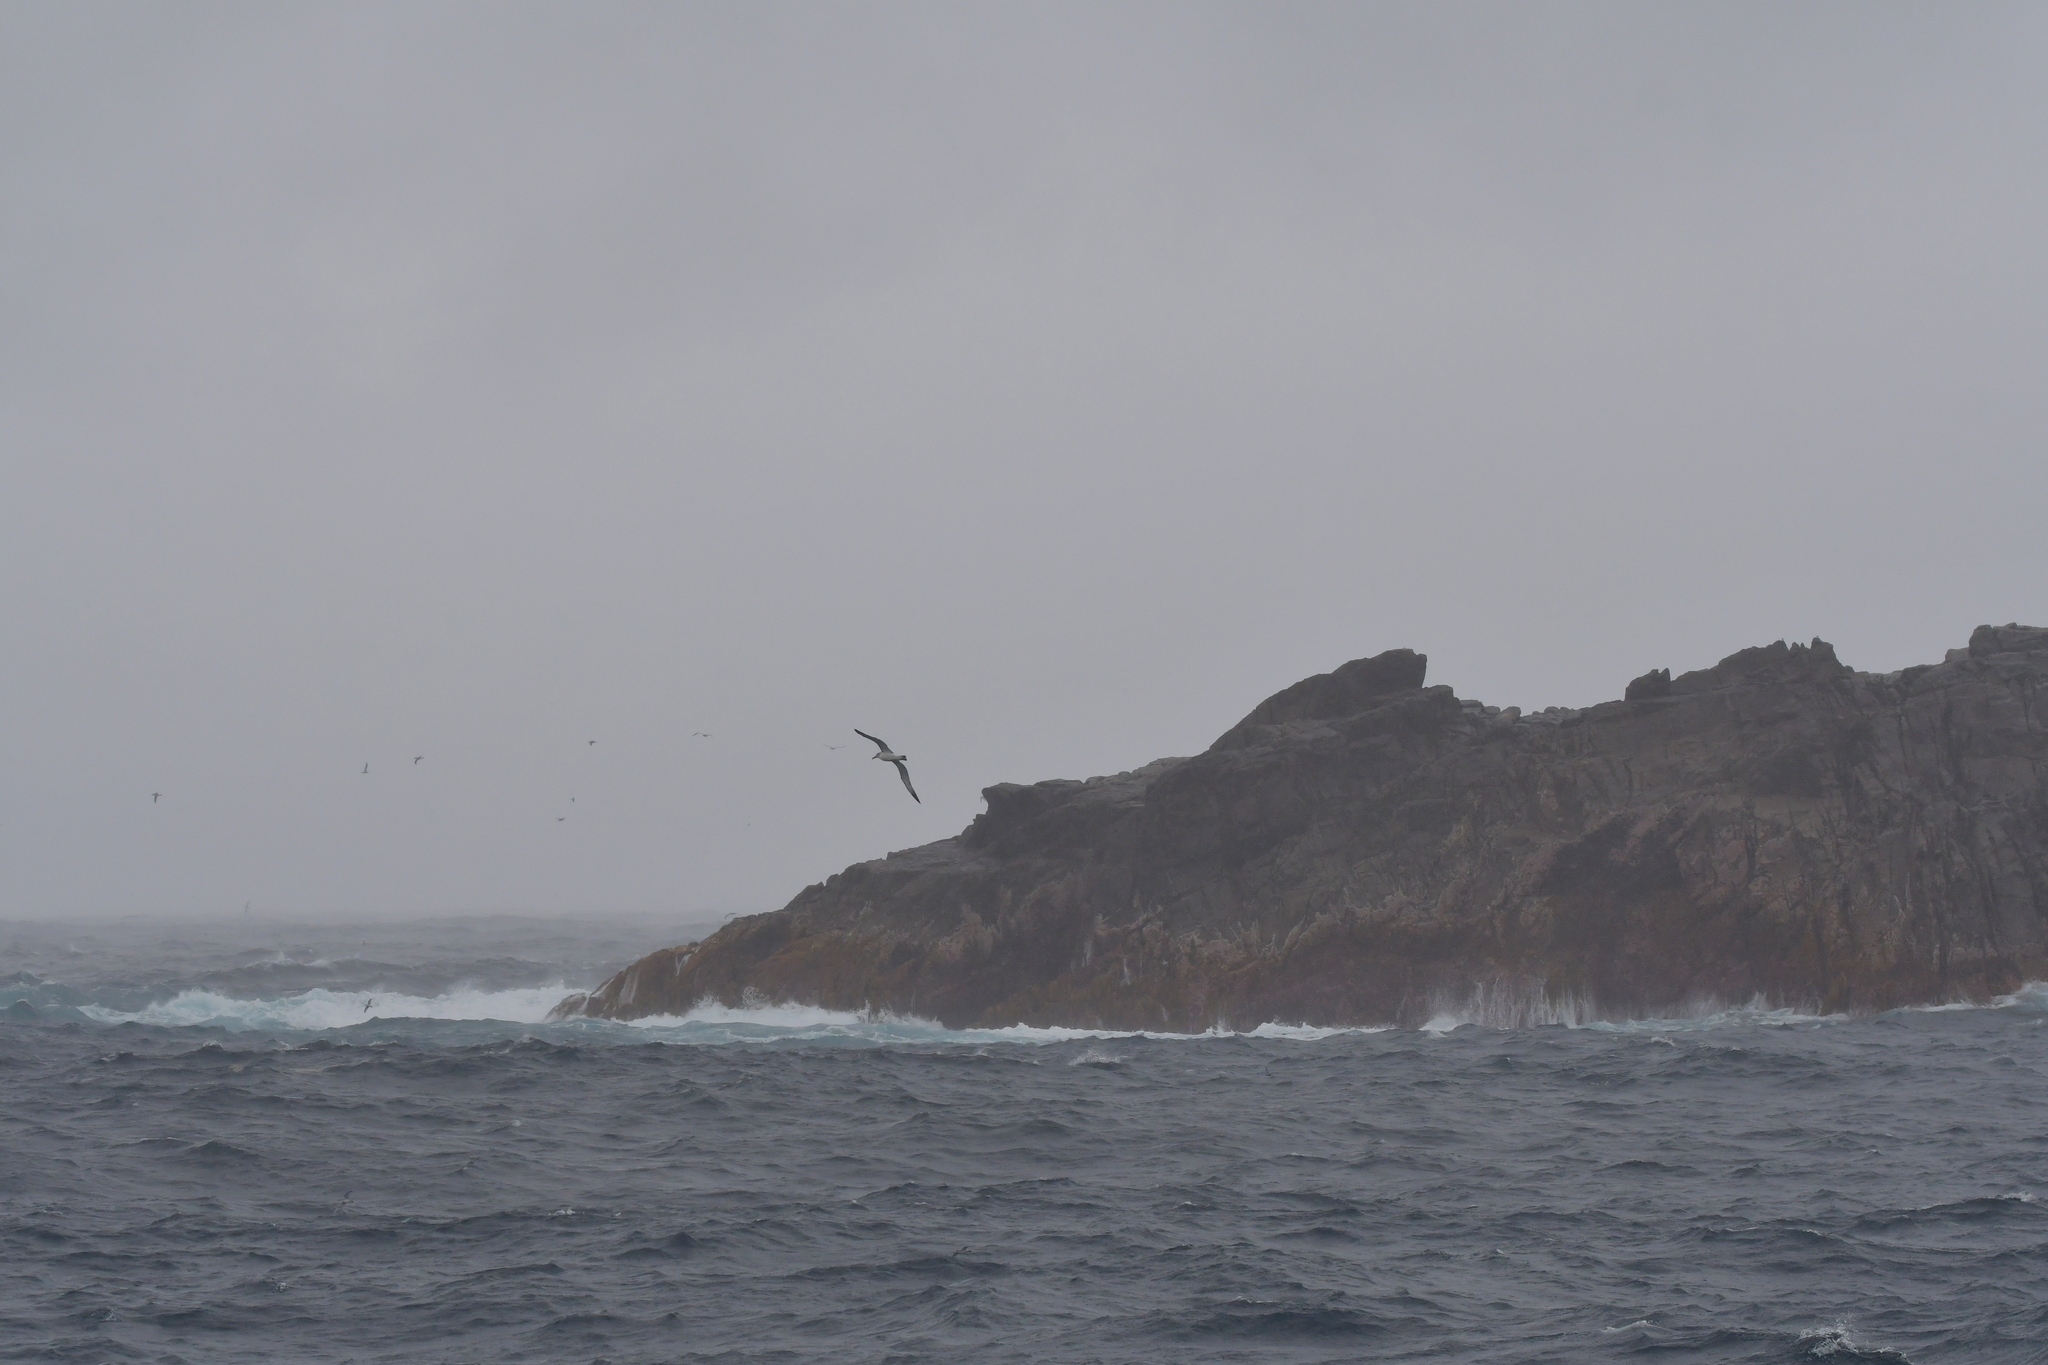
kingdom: Animalia
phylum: Chordata
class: Aves
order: Procellariiformes
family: Diomedeidae
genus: Thalassarche
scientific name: Thalassarche salvini
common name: Salvin's albatross
